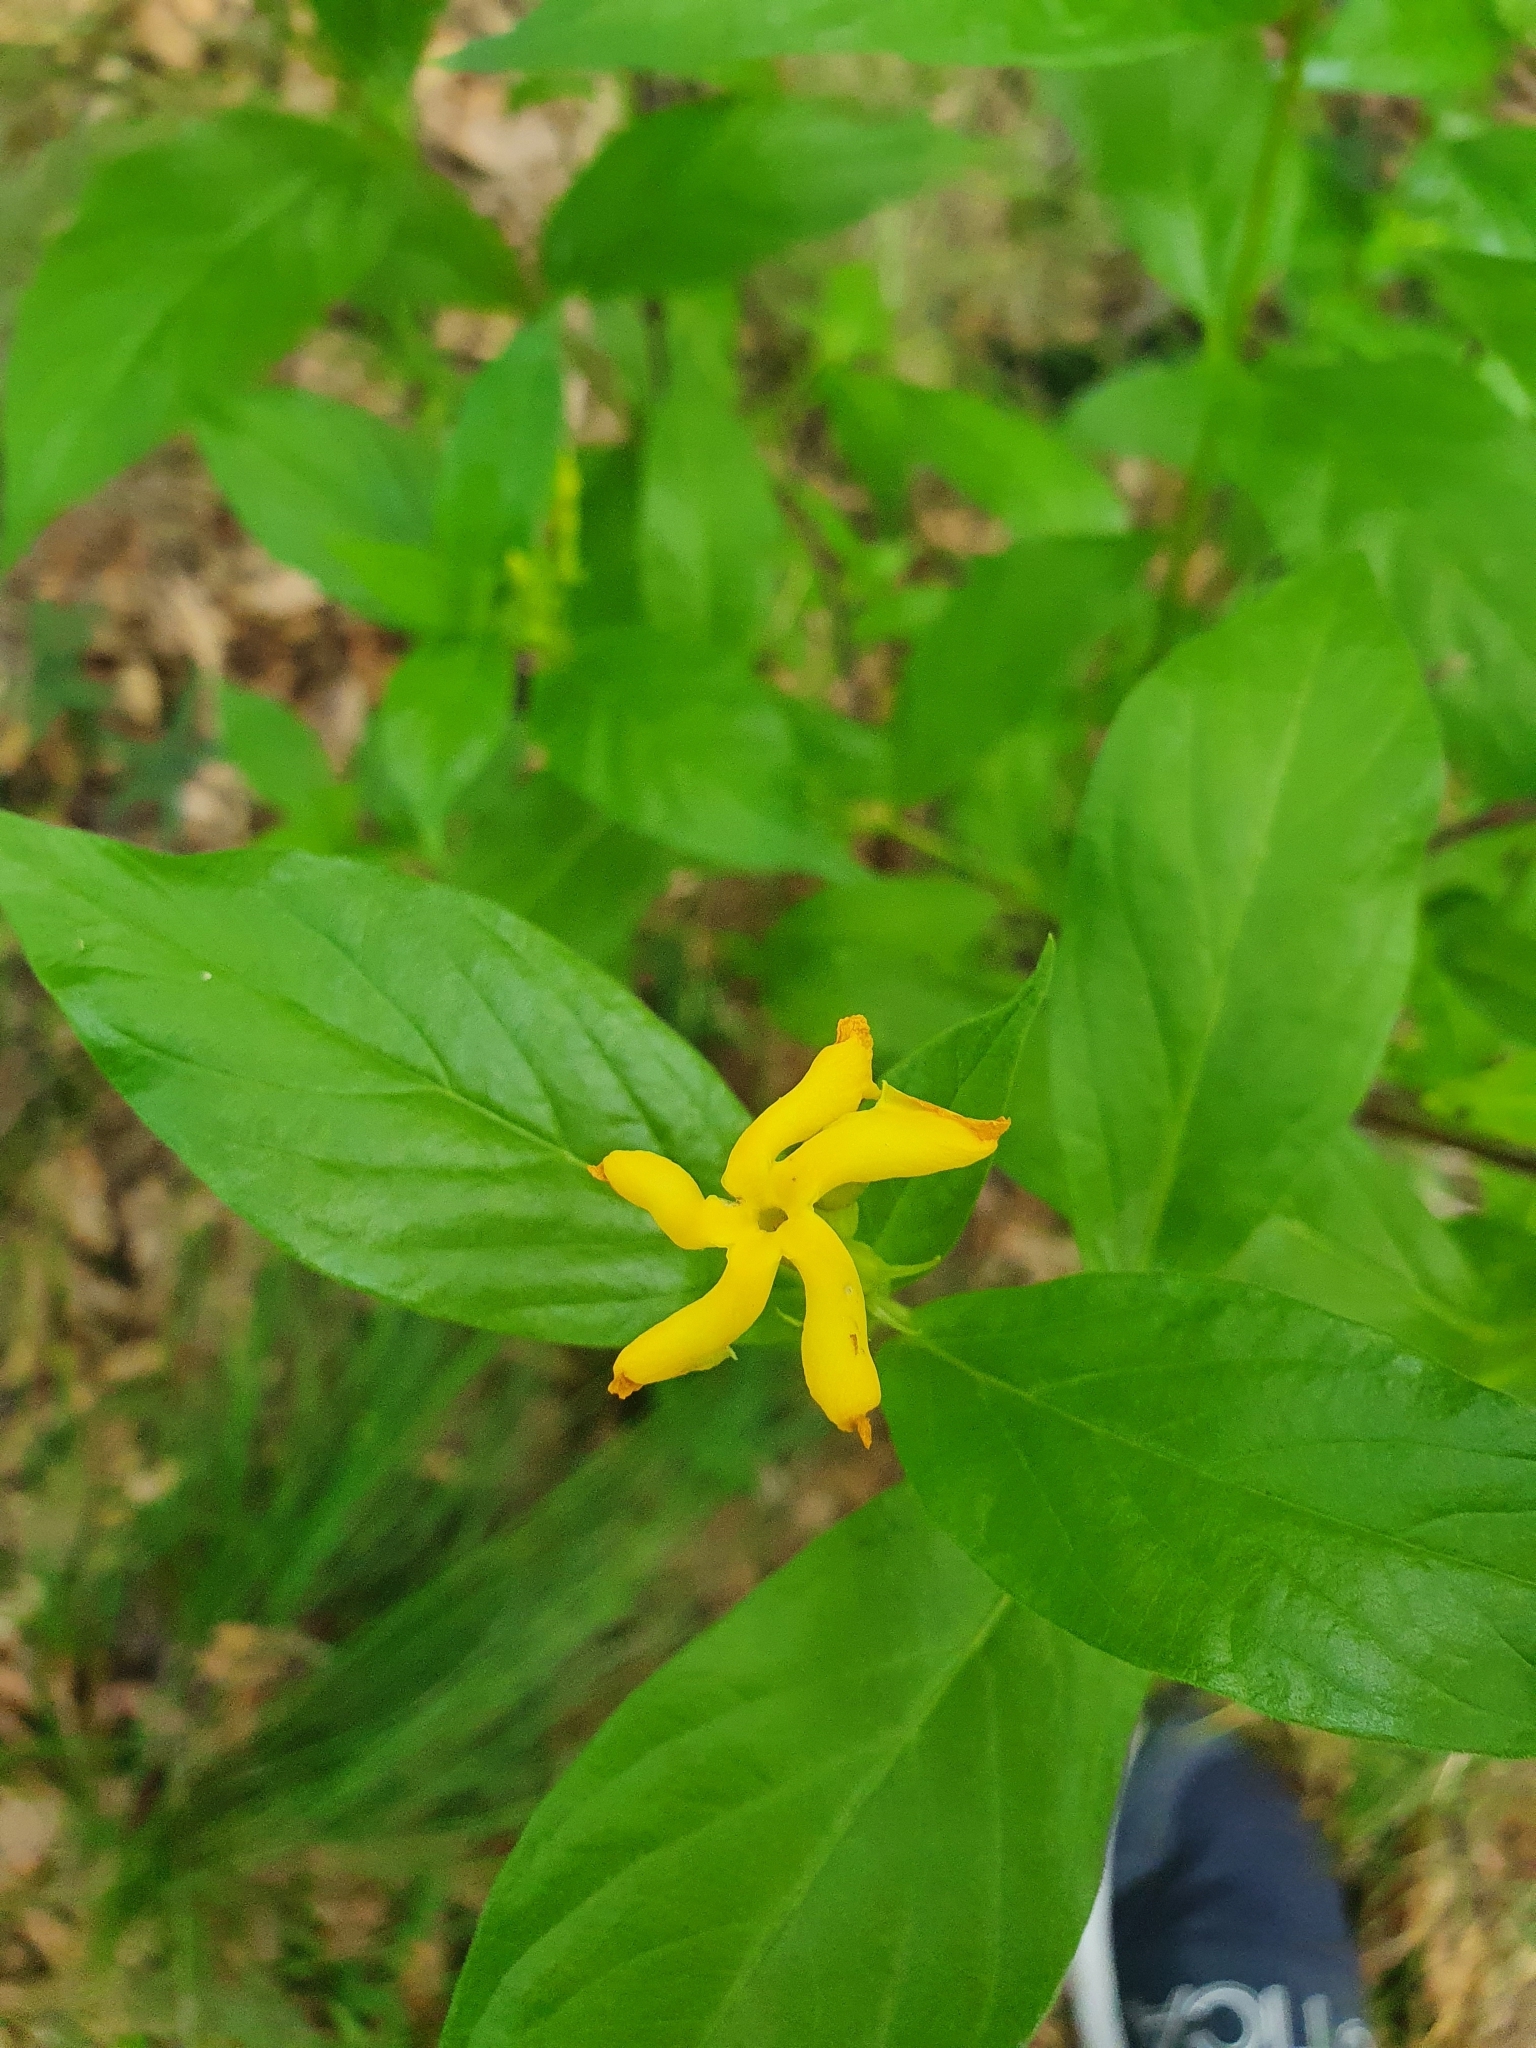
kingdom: Plantae
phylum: Tracheophyta
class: Magnoliopsida
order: Gentianales
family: Apocynaceae
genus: Mandevilla
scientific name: Mandevilla foliosa
